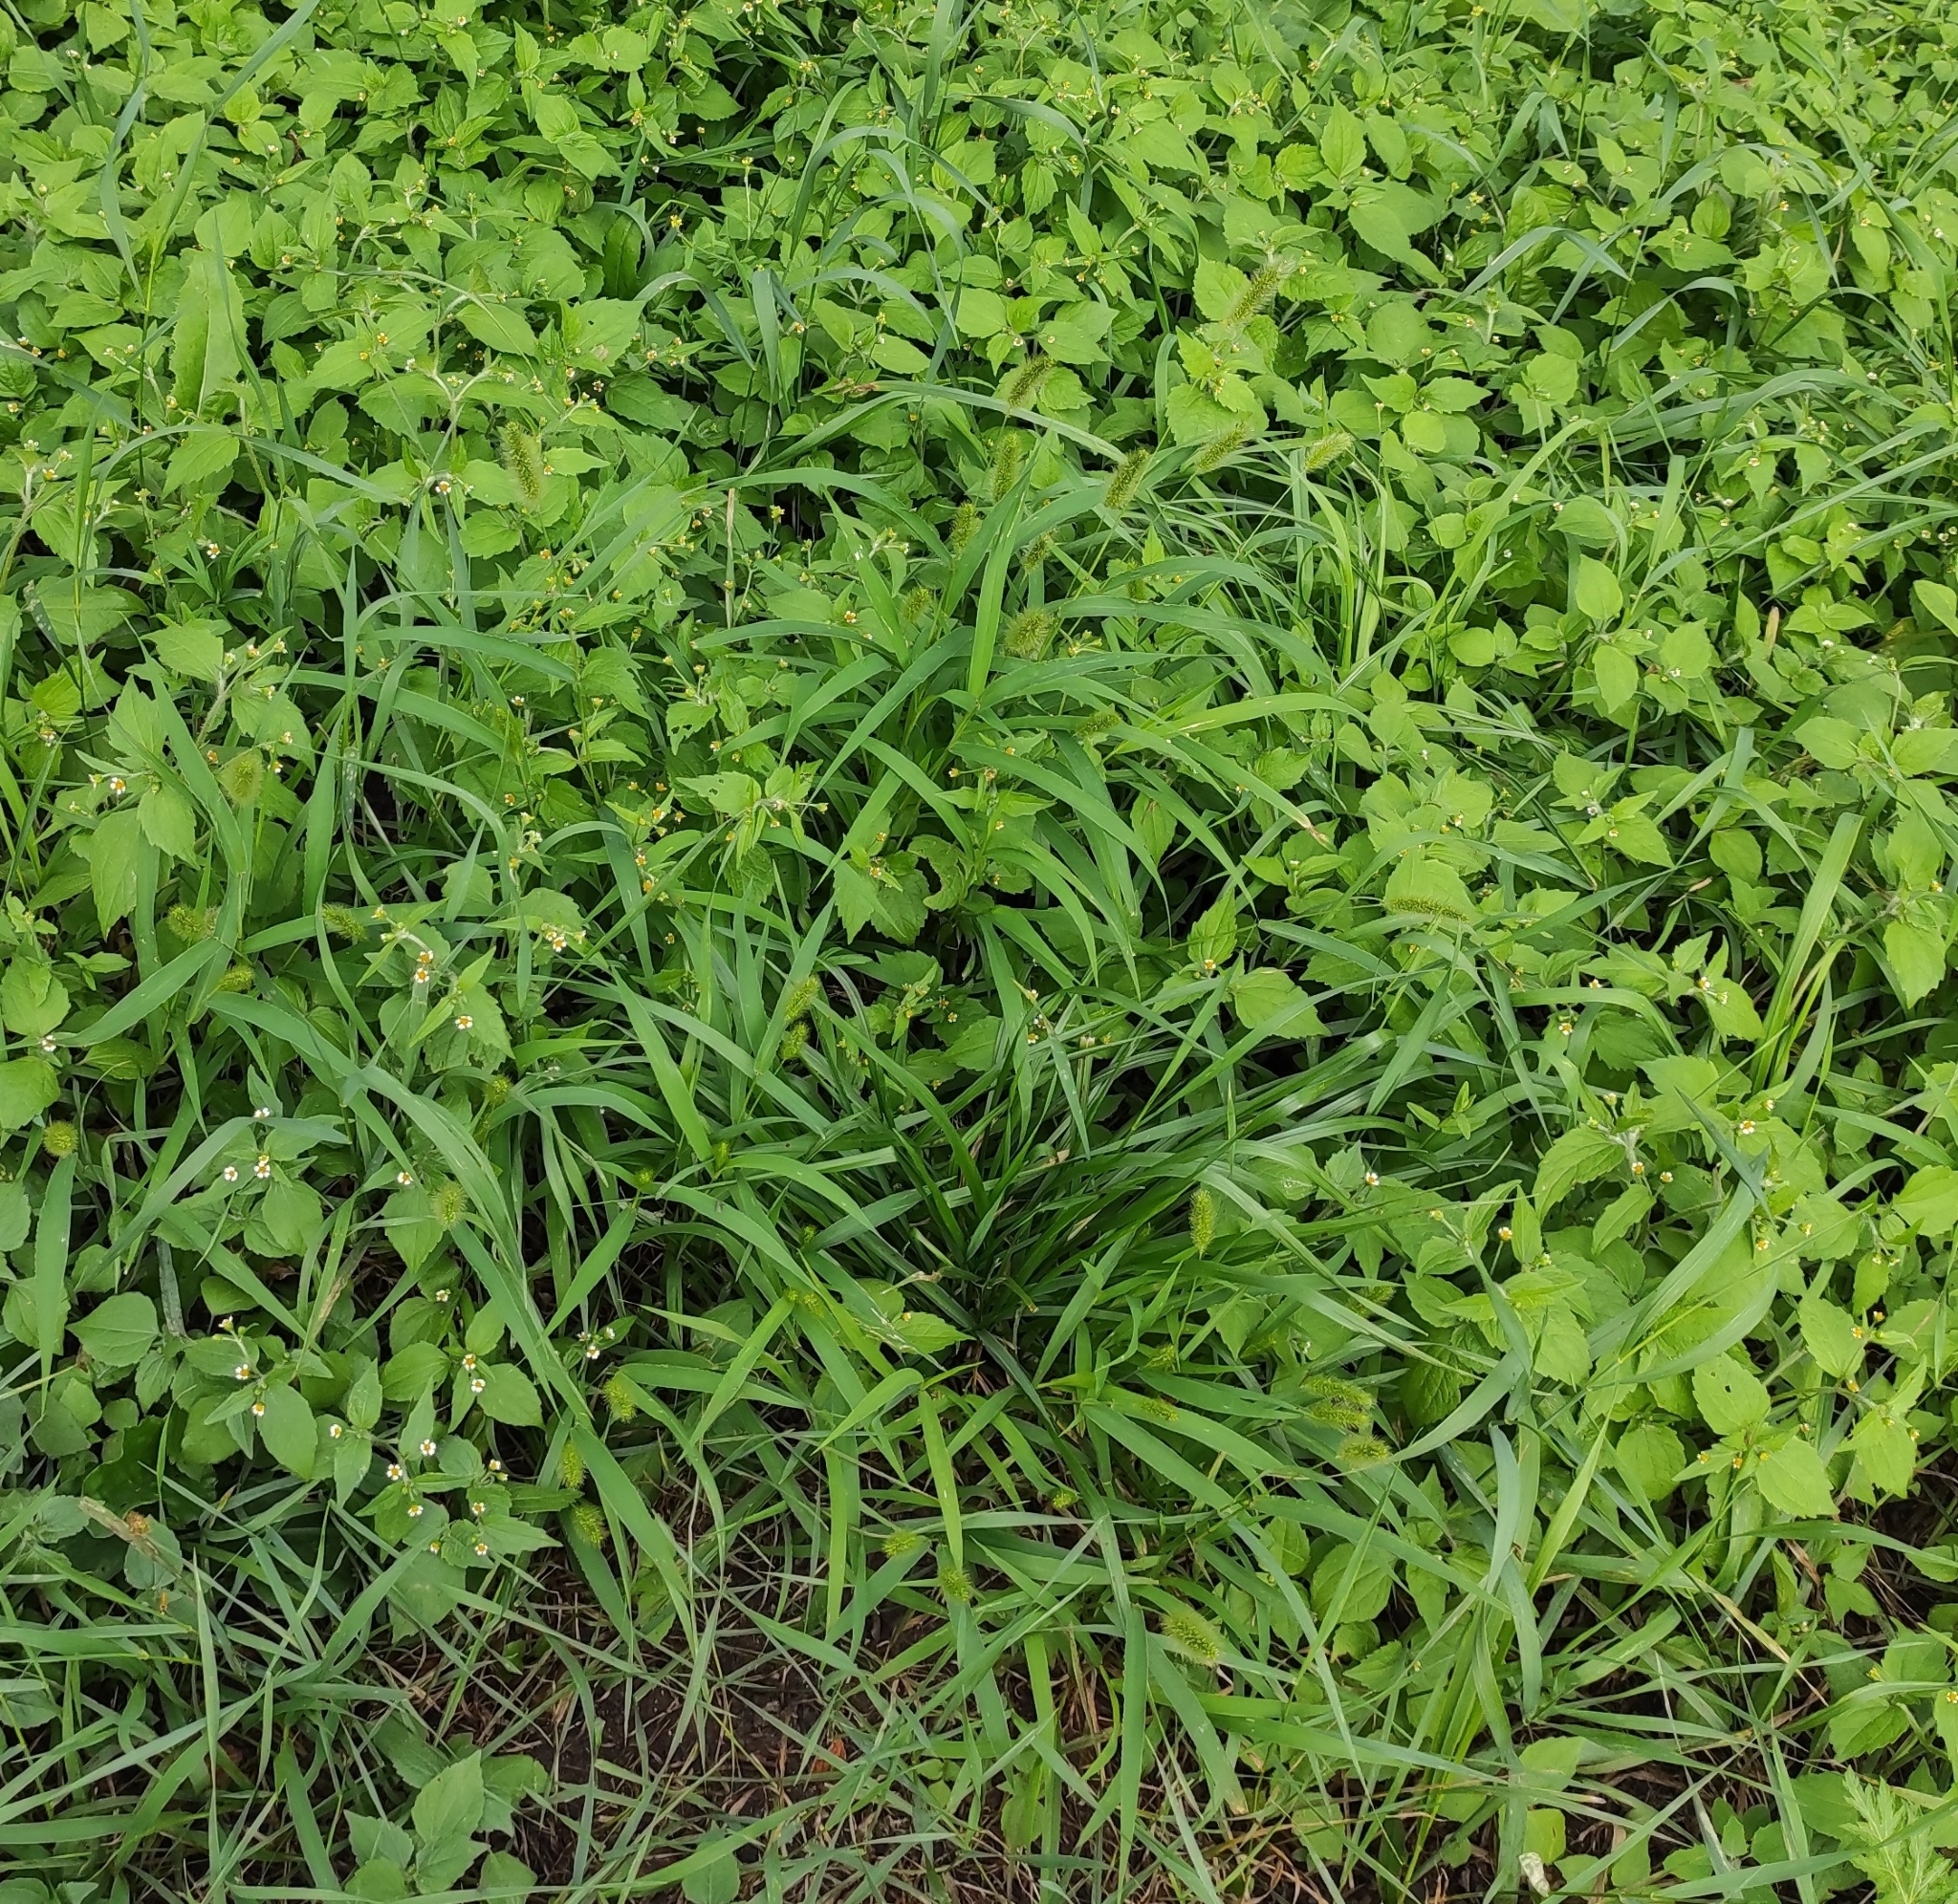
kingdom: Plantae
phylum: Tracheophyta
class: Liliopsida
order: Poales
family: Poaceae
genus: Setaria
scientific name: Setaria viridis
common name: Green bristlegrass
